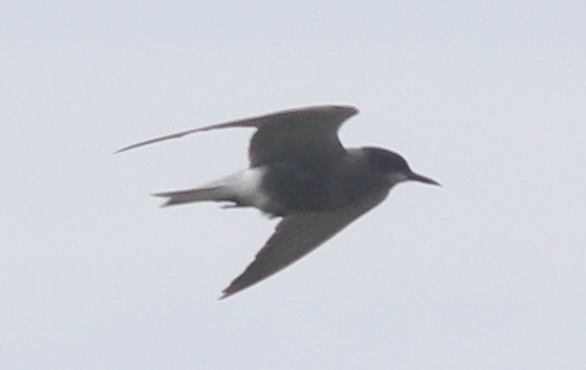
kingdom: Animalia
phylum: Chordata
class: Aves
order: Charadriiformes
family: Laridae
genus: Chlidonias
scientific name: Chlidonias niger
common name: Black tern
